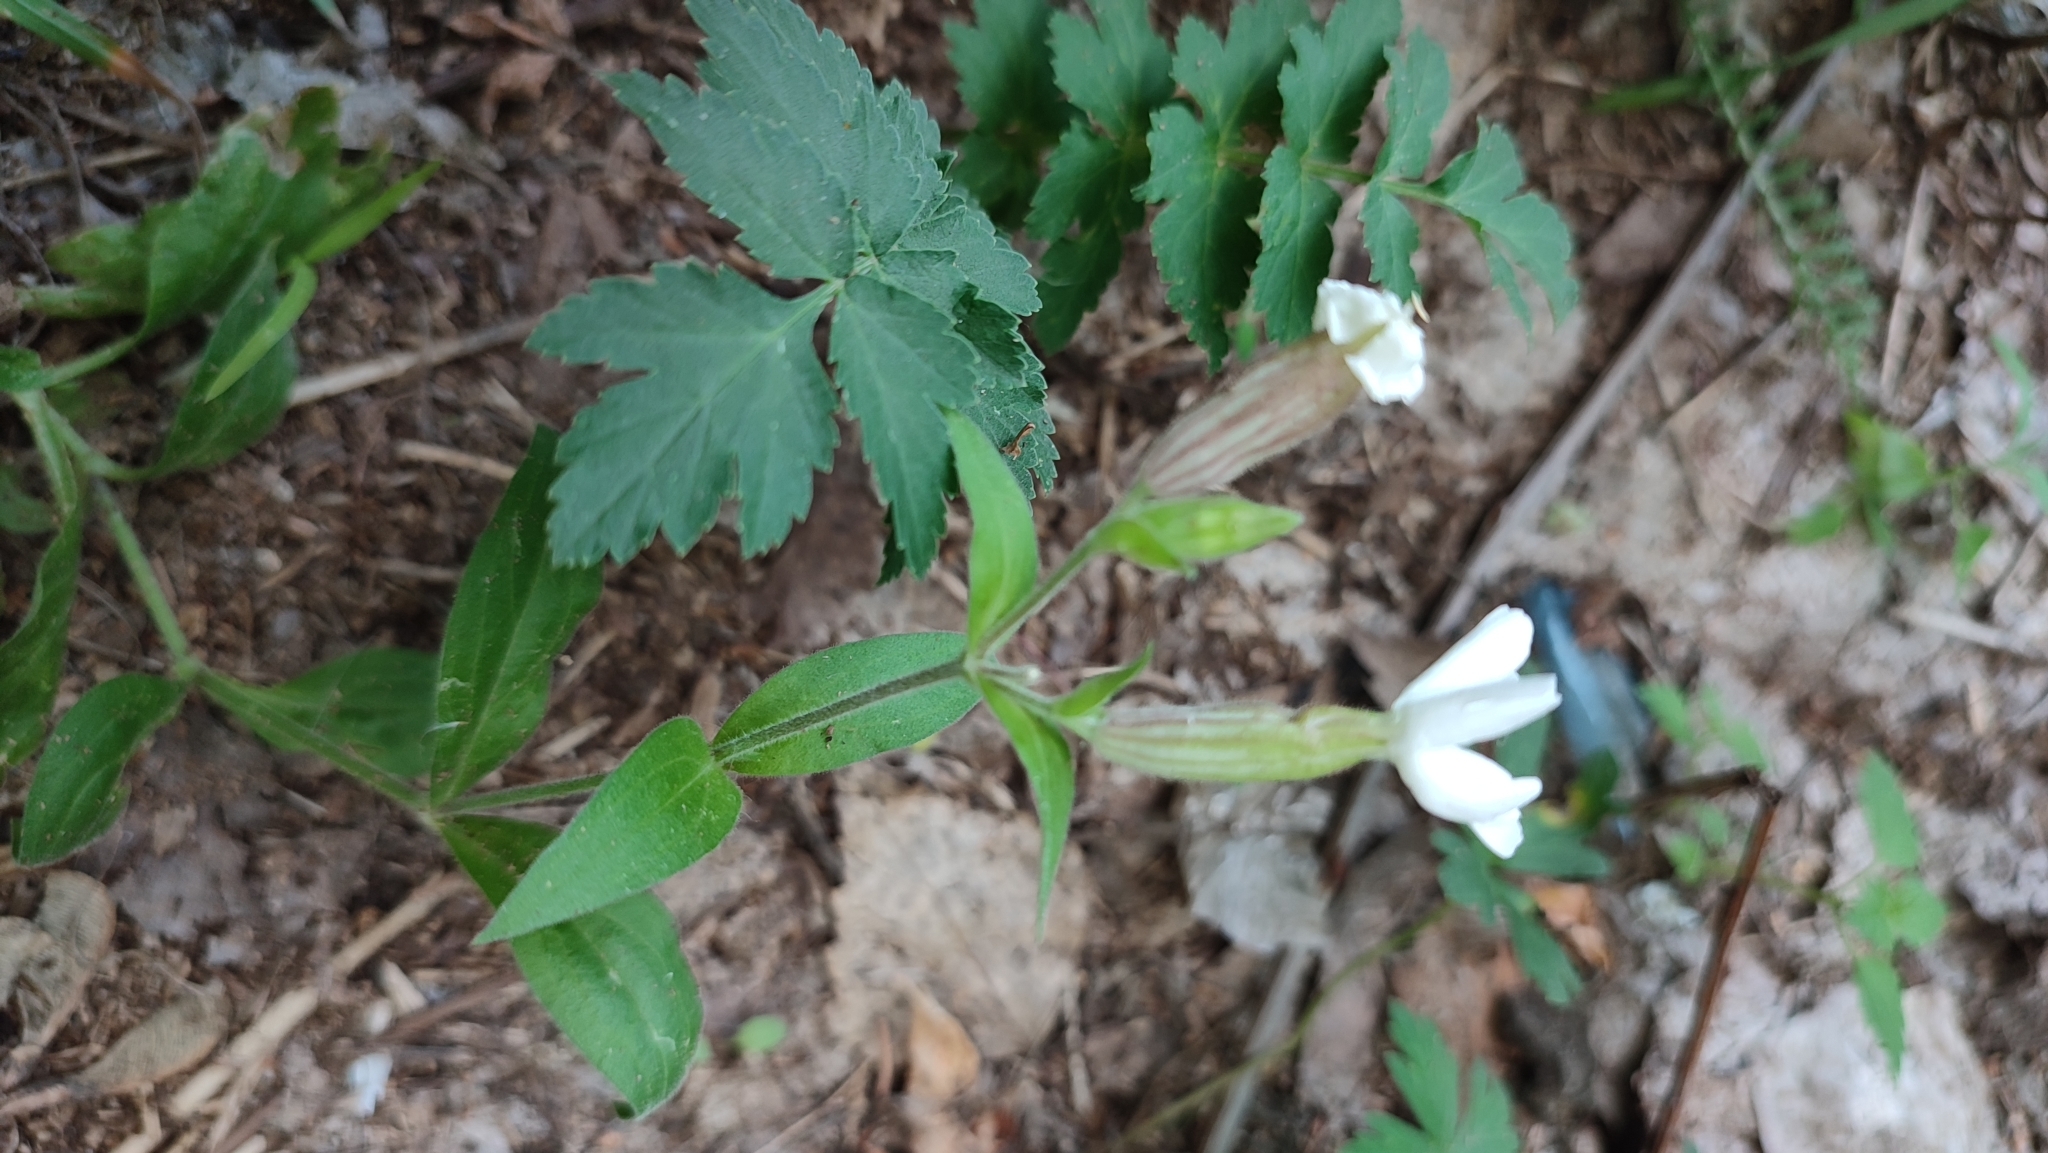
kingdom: Plantae
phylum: Tracheophyta
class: Magnoliopsida
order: Caryophyllales
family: Caryophyllaceae
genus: Silene
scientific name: Silene latifolia
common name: White campion
